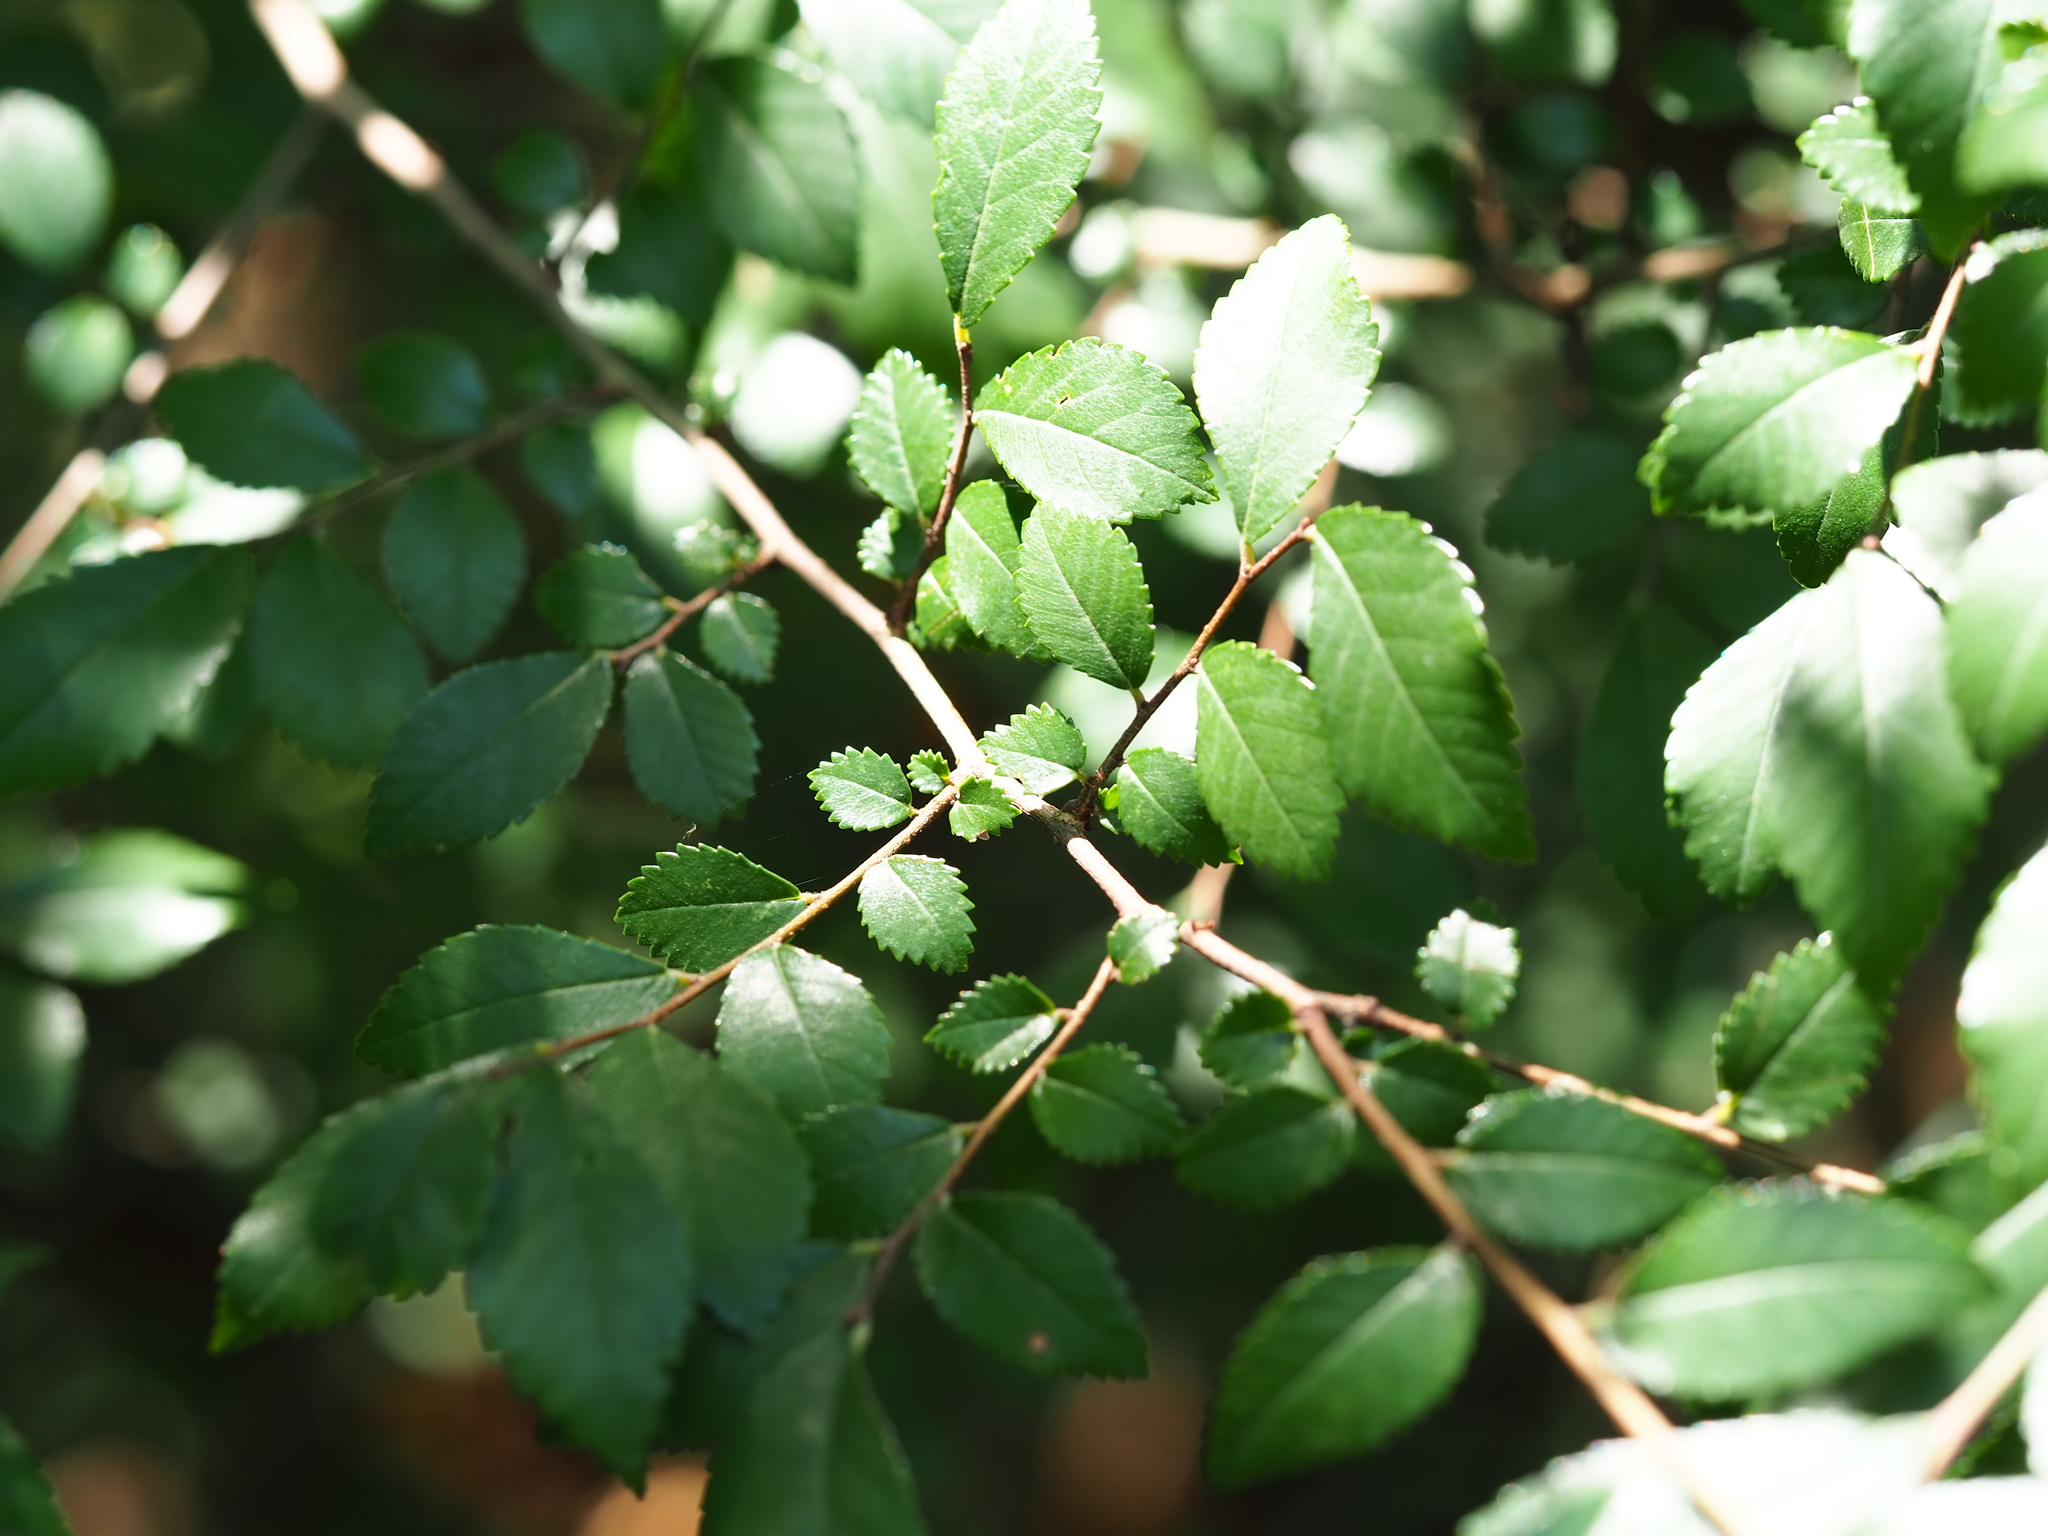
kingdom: Plantae
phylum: Tracheophyta
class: Magnoliopsida
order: Rosales
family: Ulmaceae
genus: Ulmus
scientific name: Ulmus parvifolia
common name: Chinese elm
